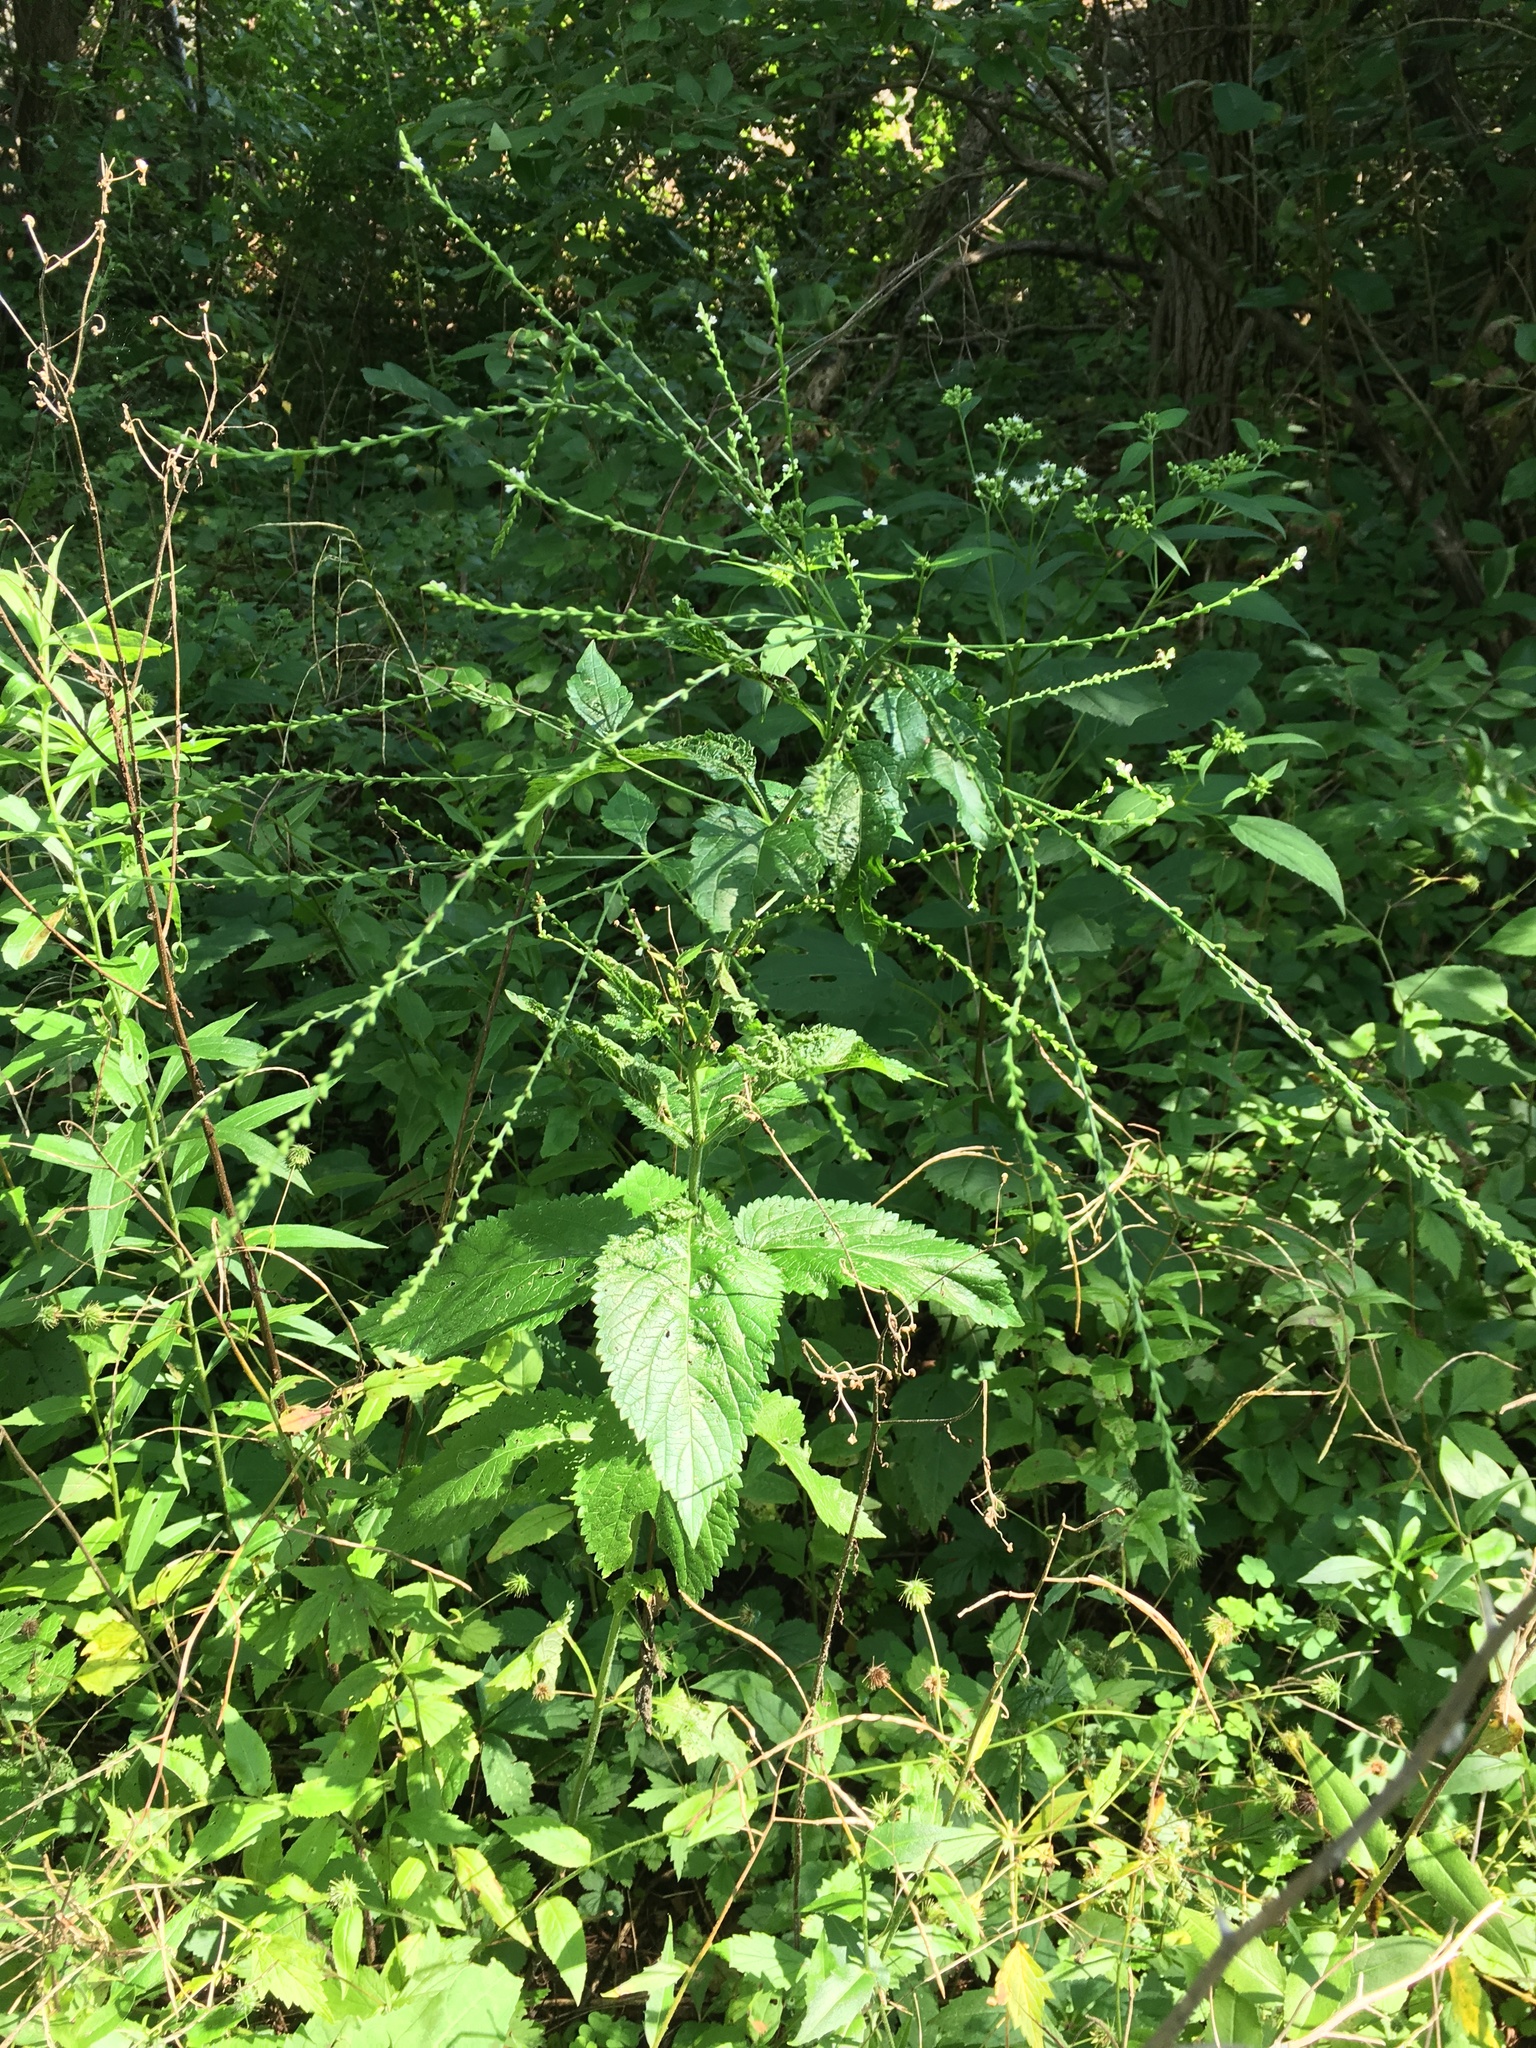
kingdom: Plantae
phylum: Tracheophyta
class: Magnoliopsida
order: Lamiales
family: Verbenaceae
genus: Verbena
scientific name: Verbena urticifolia
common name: Nettle-leaved vervain
